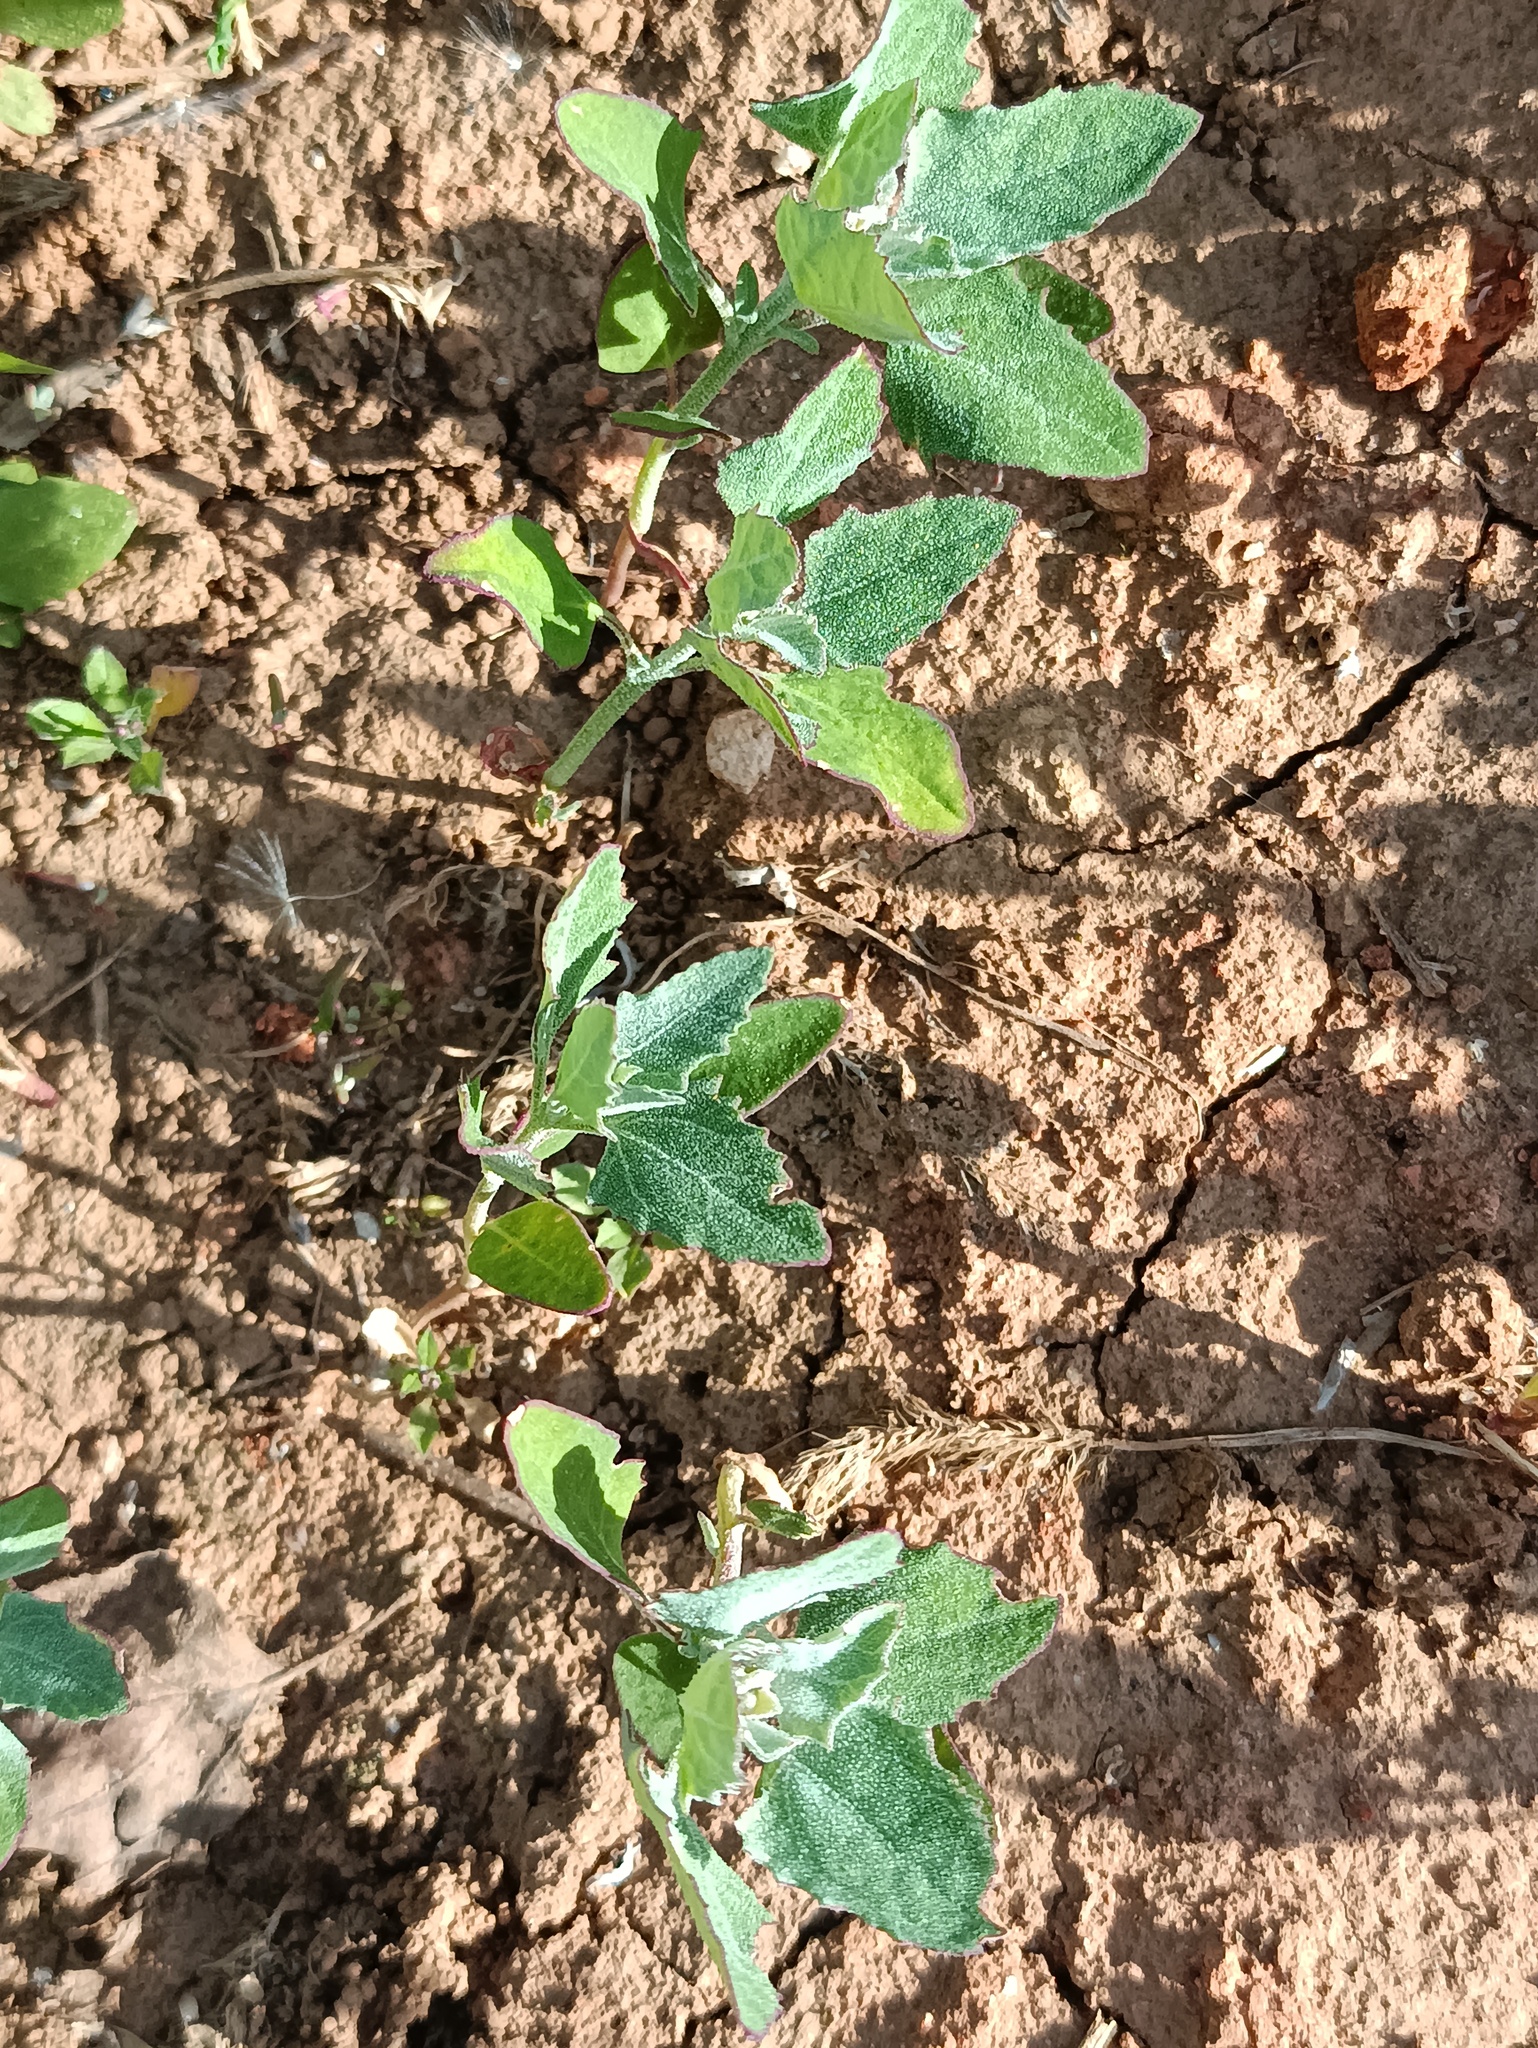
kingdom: Plantae
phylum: Tracheophyta
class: Magnoliopsida
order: Caryophyllales
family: Amaranthaceae
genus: Chenopodium
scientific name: Chenopodium album
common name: Fat-hen
